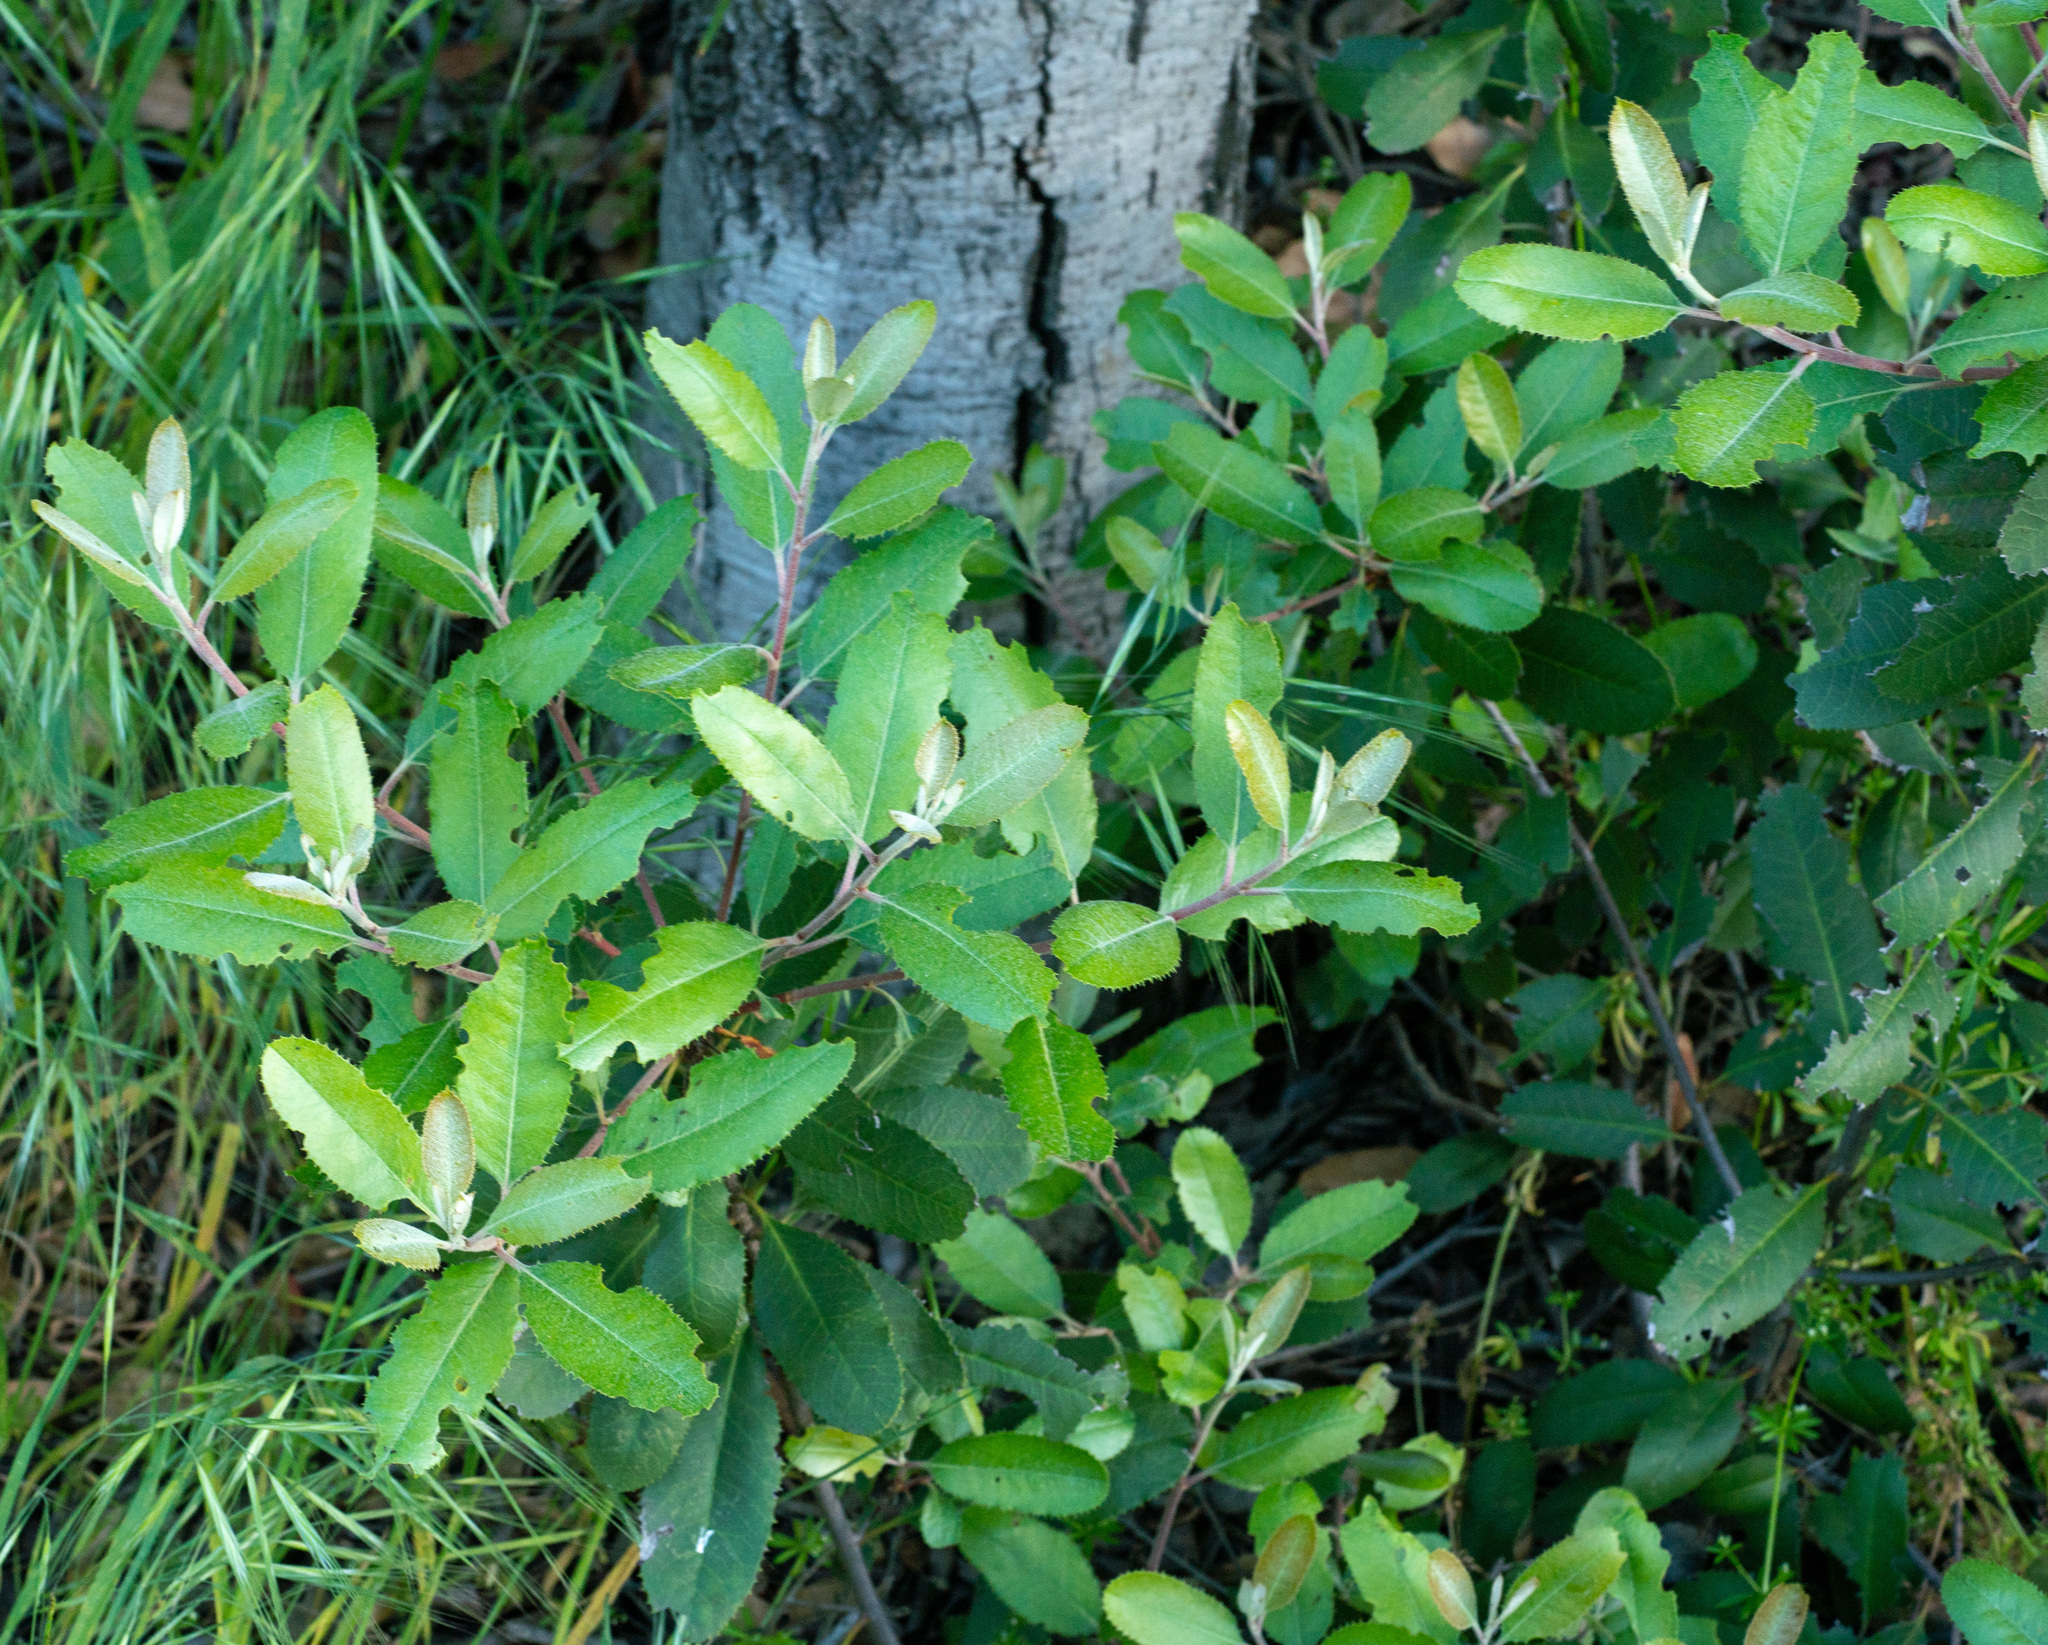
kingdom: Plantae
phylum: Tracheophyta
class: Magnoliopsida
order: Rosales
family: Rosaceae
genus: Heteromeles
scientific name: Heteromeles arbutifolia
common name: California-holly
